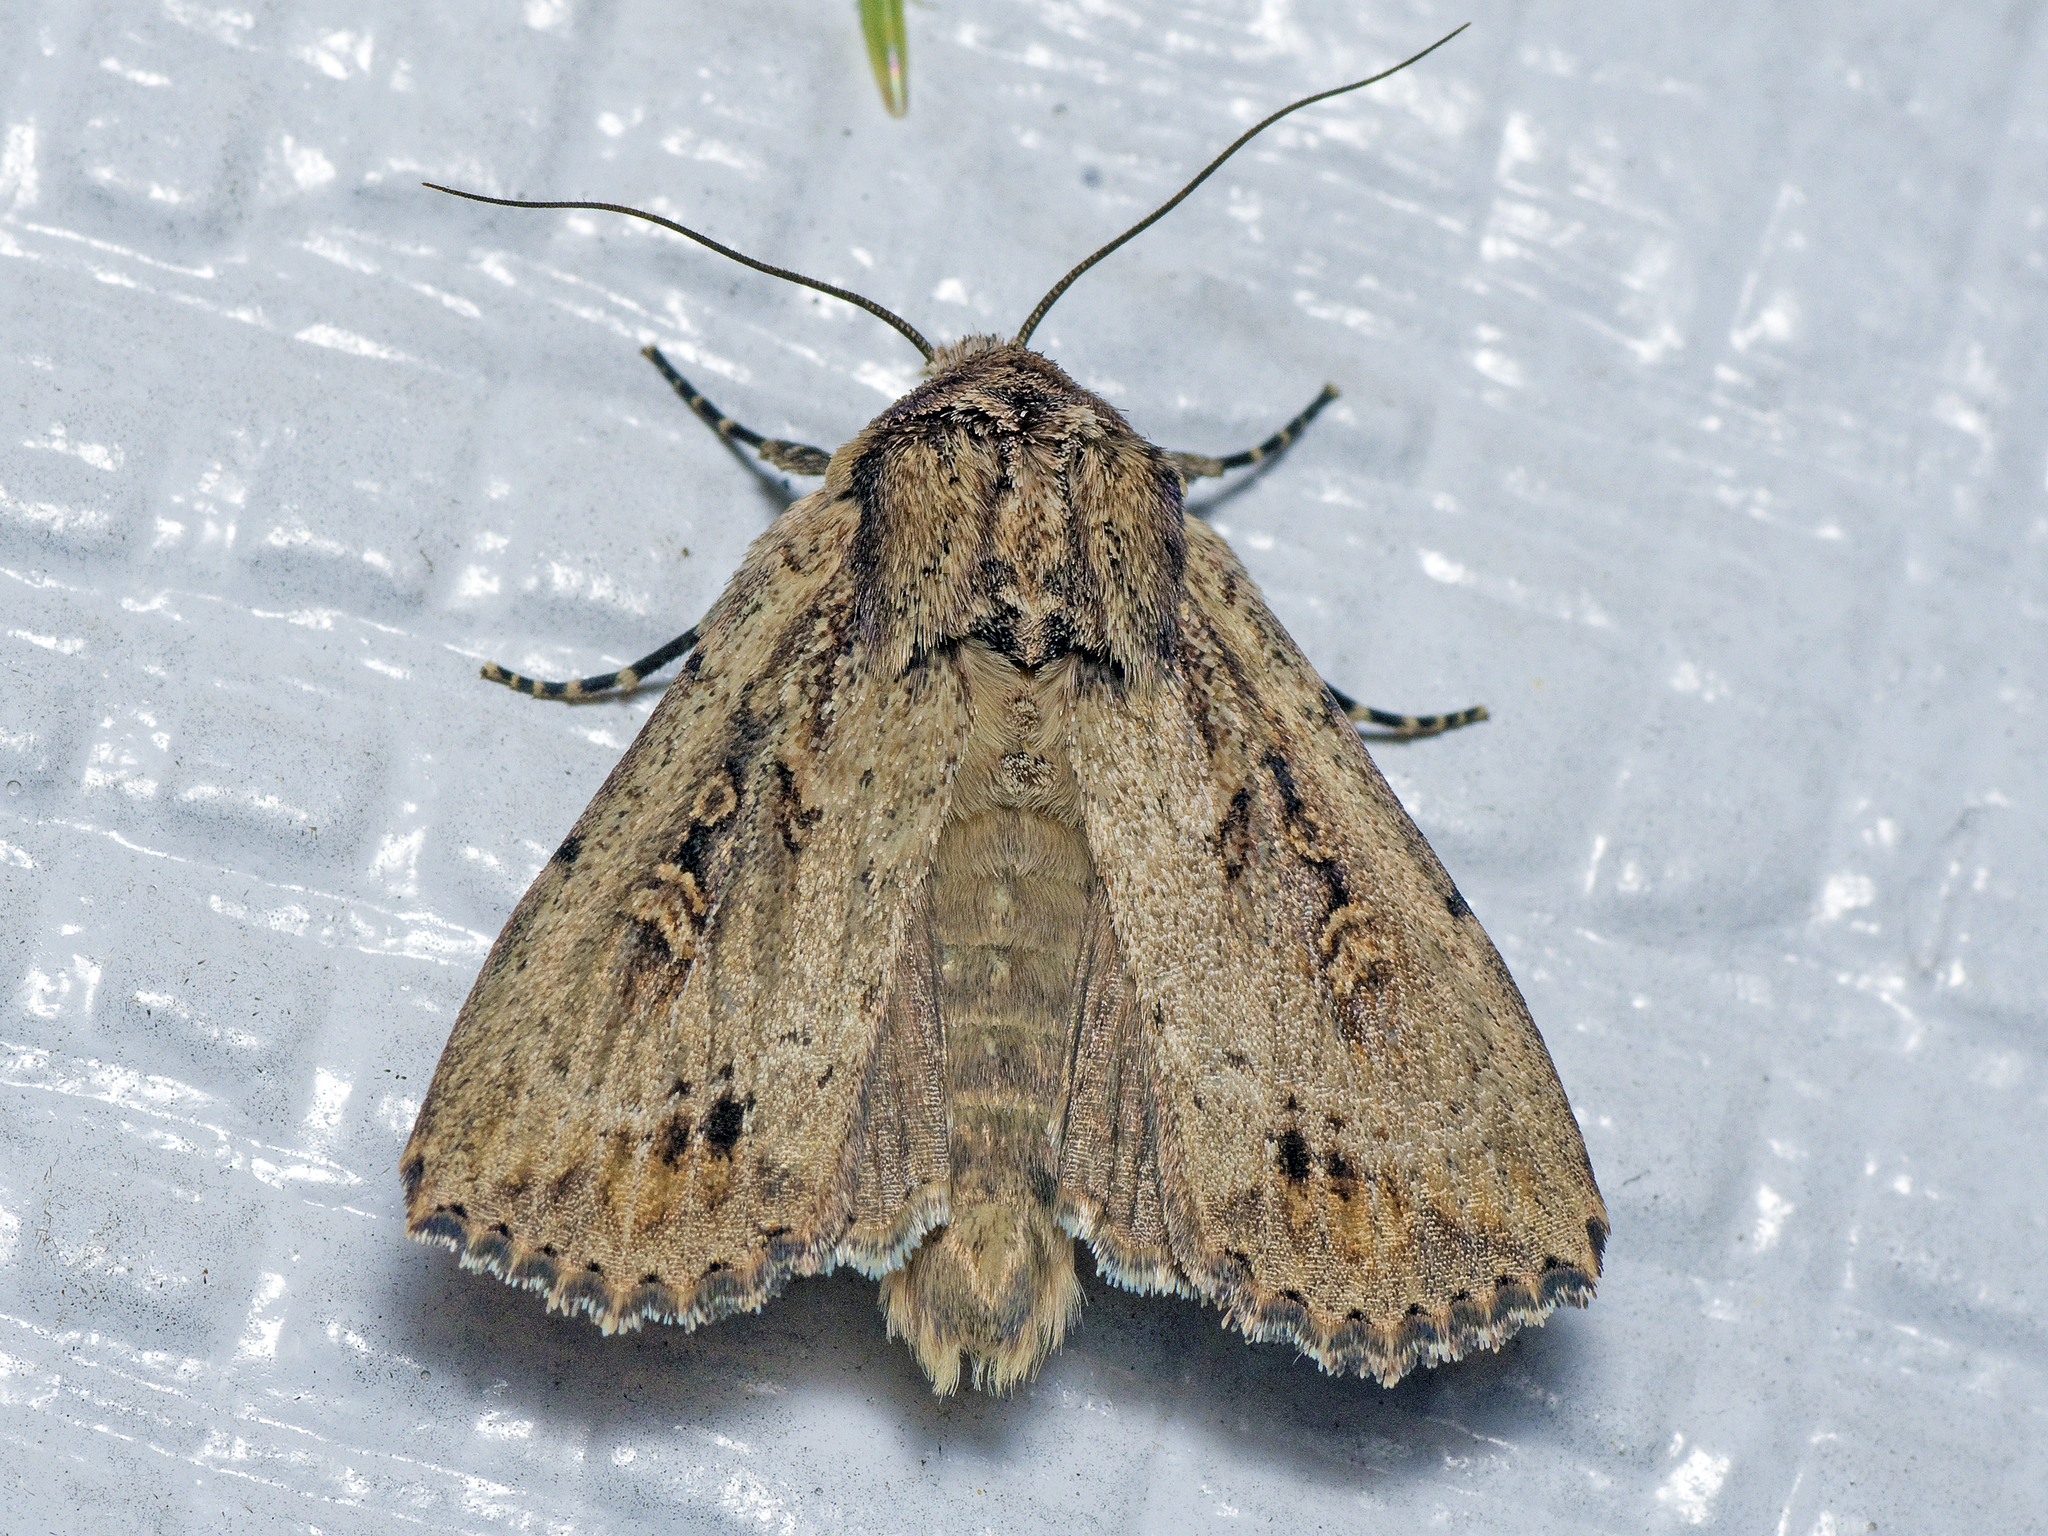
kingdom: Animalia
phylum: Arthropoda
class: Insecta
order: Lepidoptera
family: Noctuidae
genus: Mythimna
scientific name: Mythimna reversa
